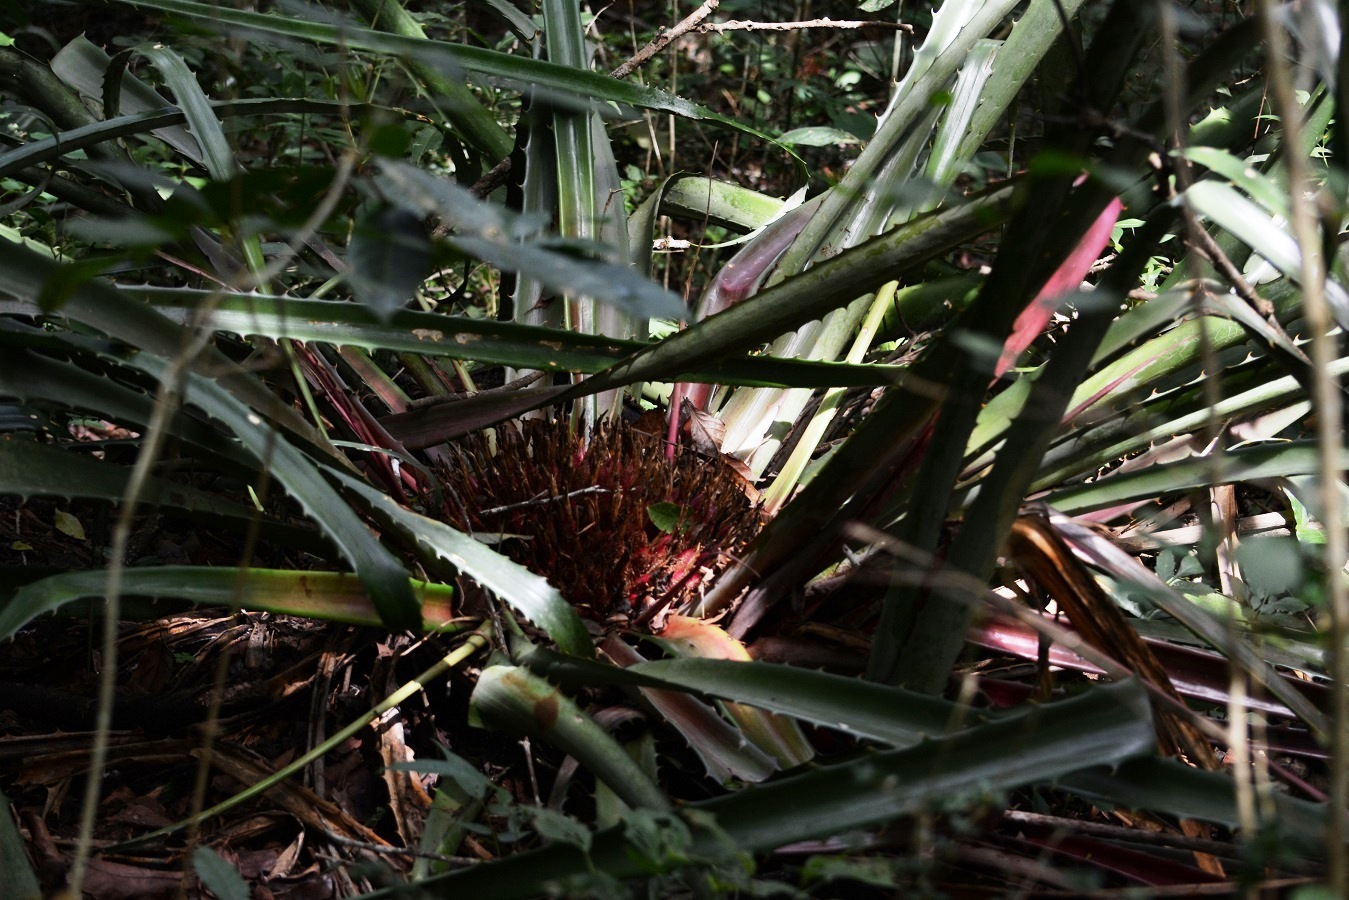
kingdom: Plantae
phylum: Tracheophyta
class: Liliopsida
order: Poales
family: Bromeliaceae
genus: Bromelia
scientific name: Bromelia karatas
